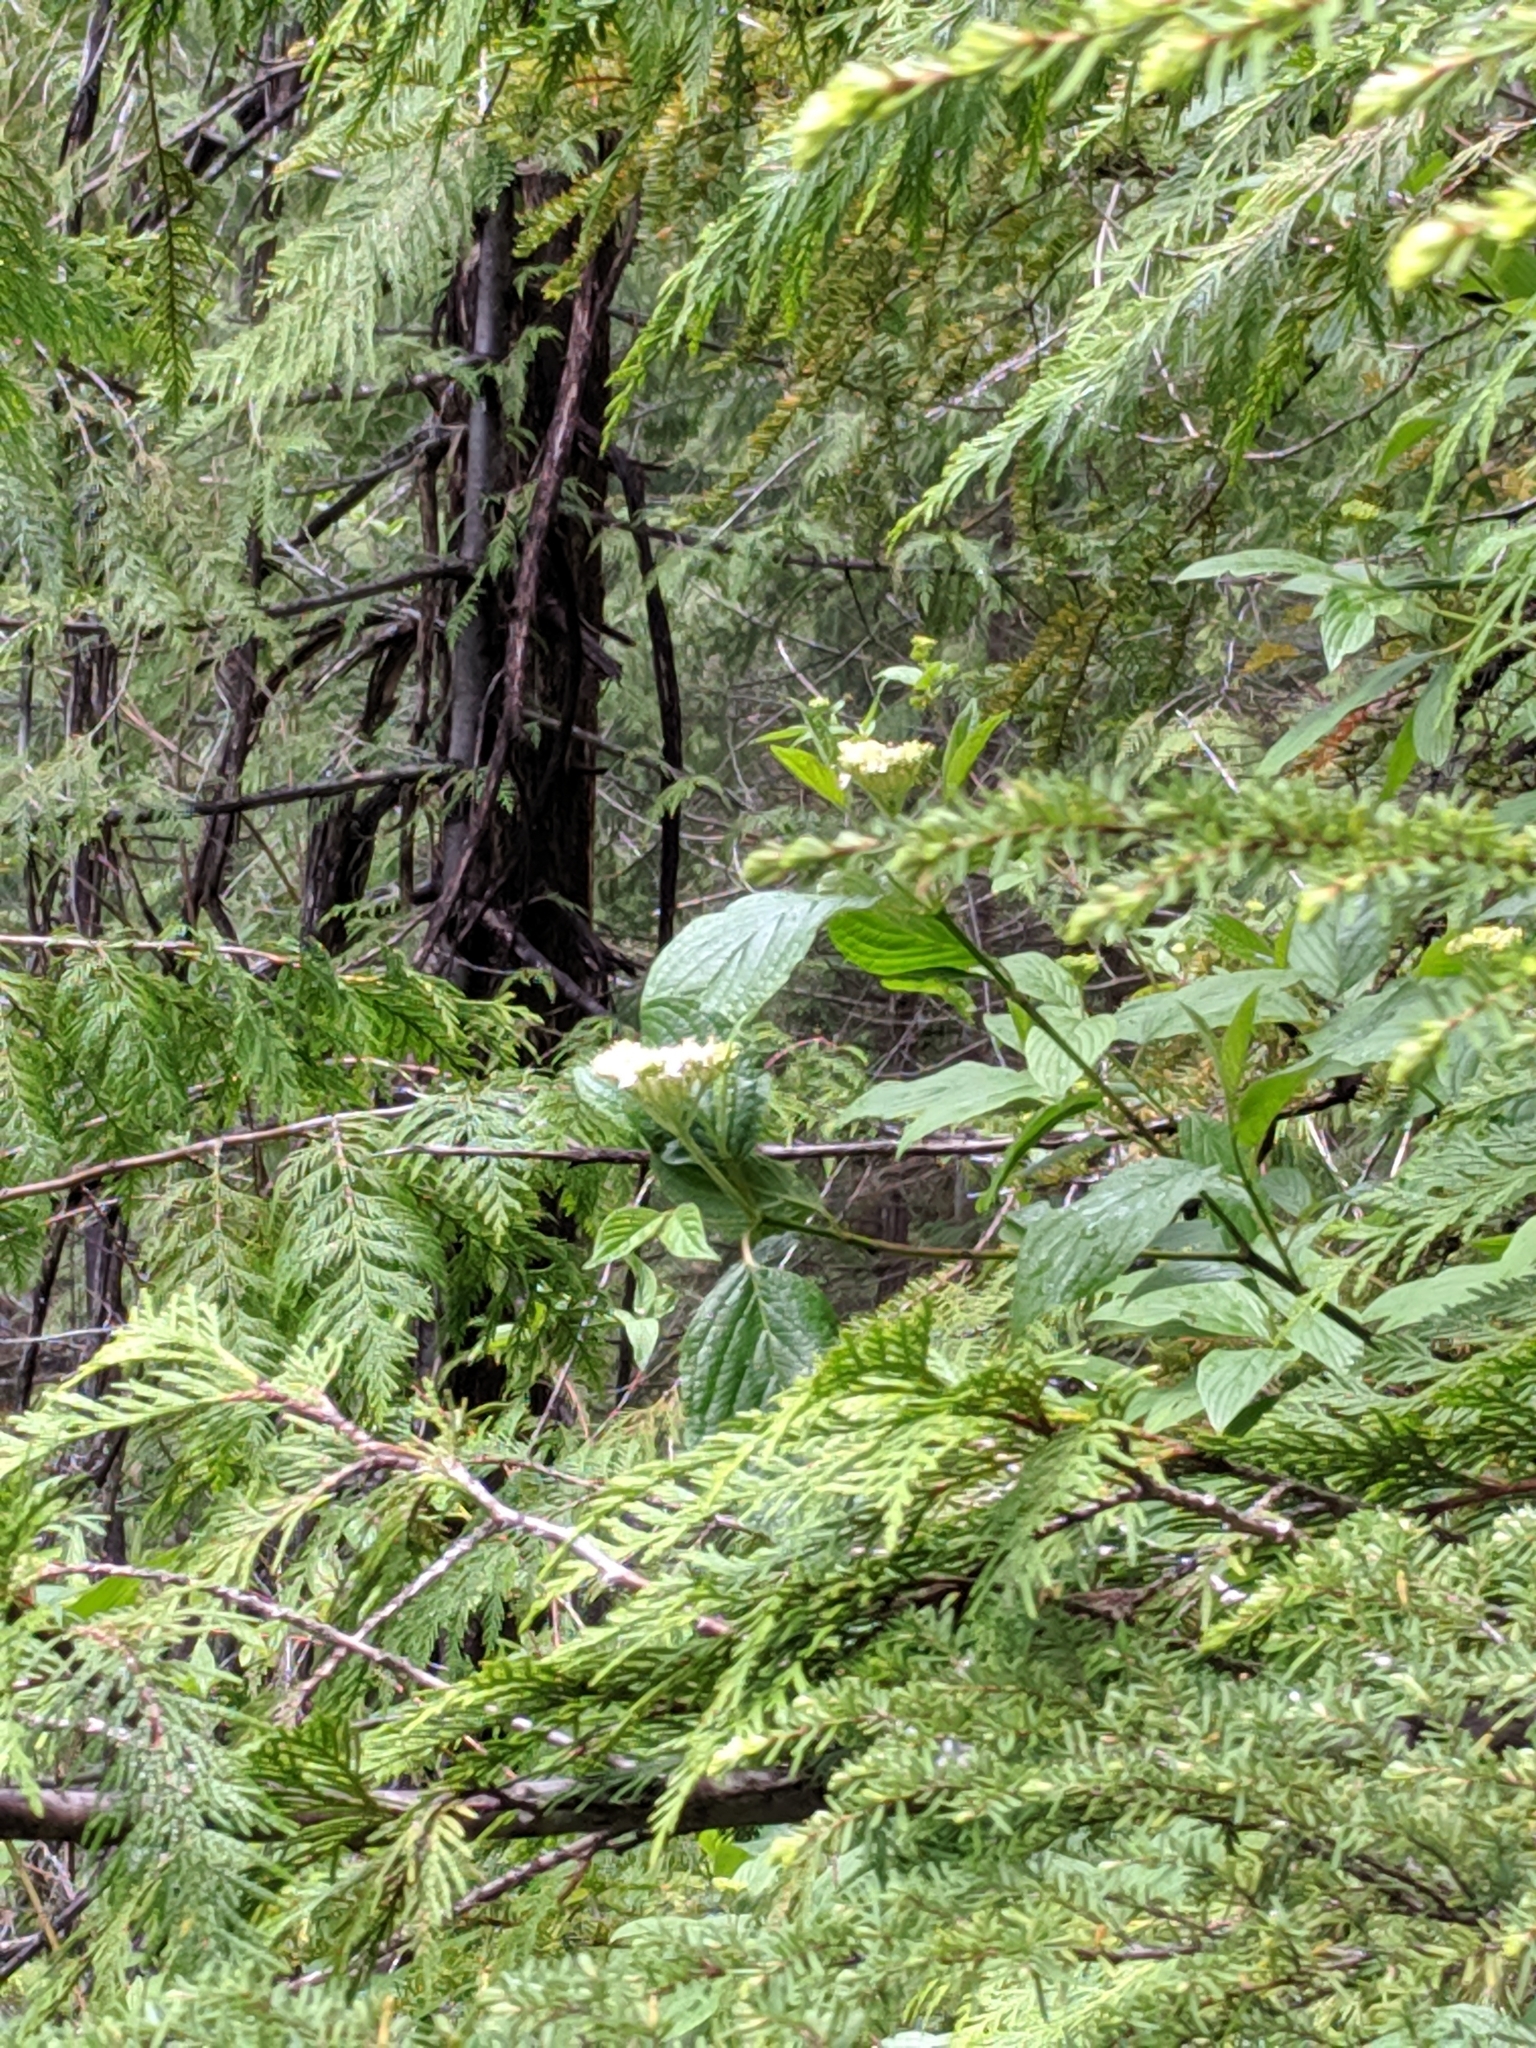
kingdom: Plantae
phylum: Tracheophyta
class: Magnoliopsida
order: Cornales
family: Cornaceae
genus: Cornus
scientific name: Cornus sericea
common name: Red-osier dogwood
